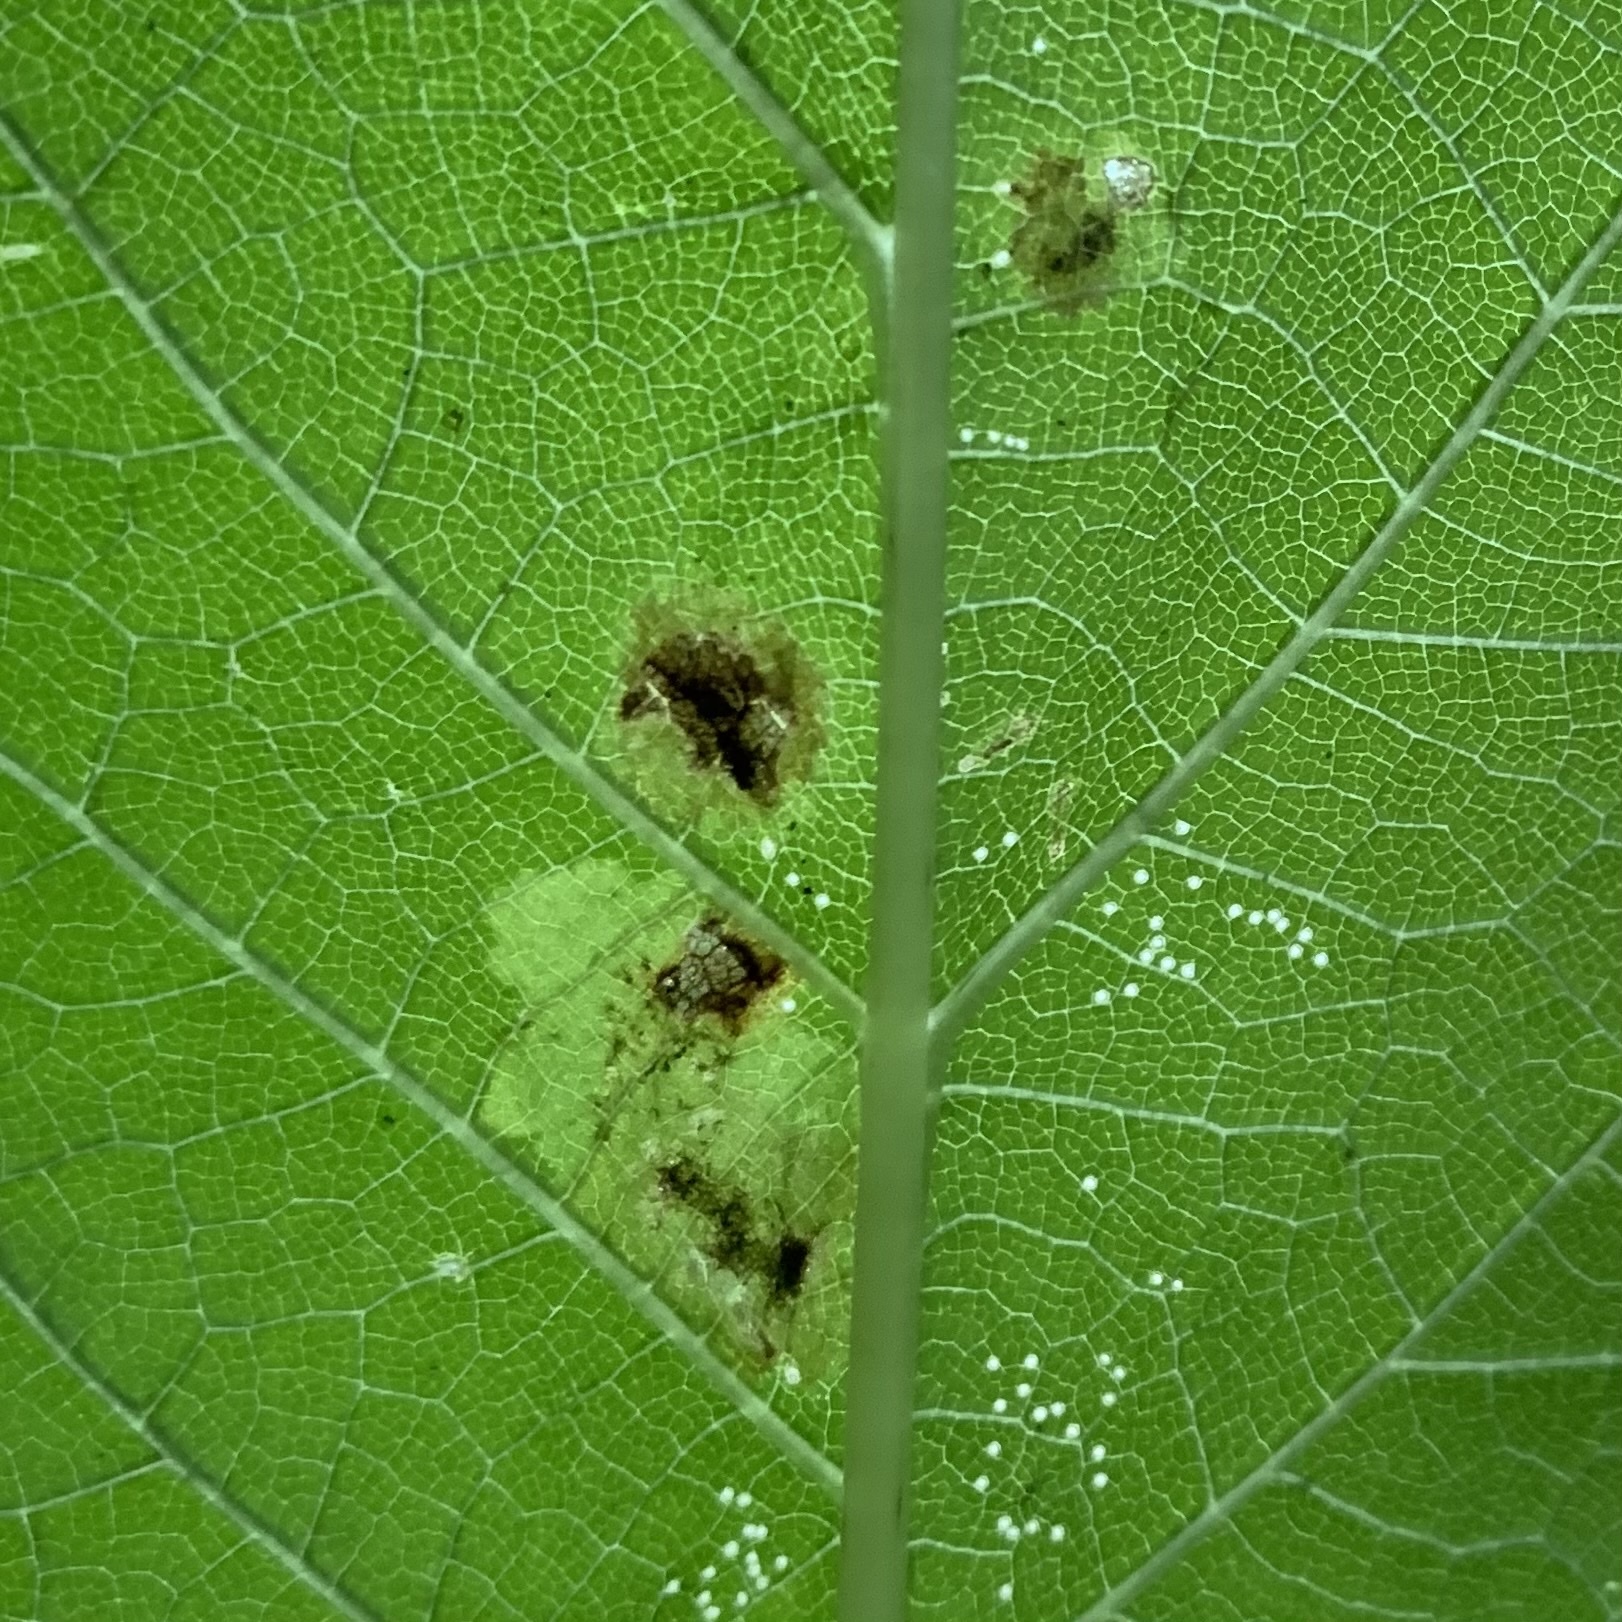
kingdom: Animalia
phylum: Arthropoda
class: Insecta
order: Diptera
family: Agromyzidae
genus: Calycomyza
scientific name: Calycomyza flavinotum
